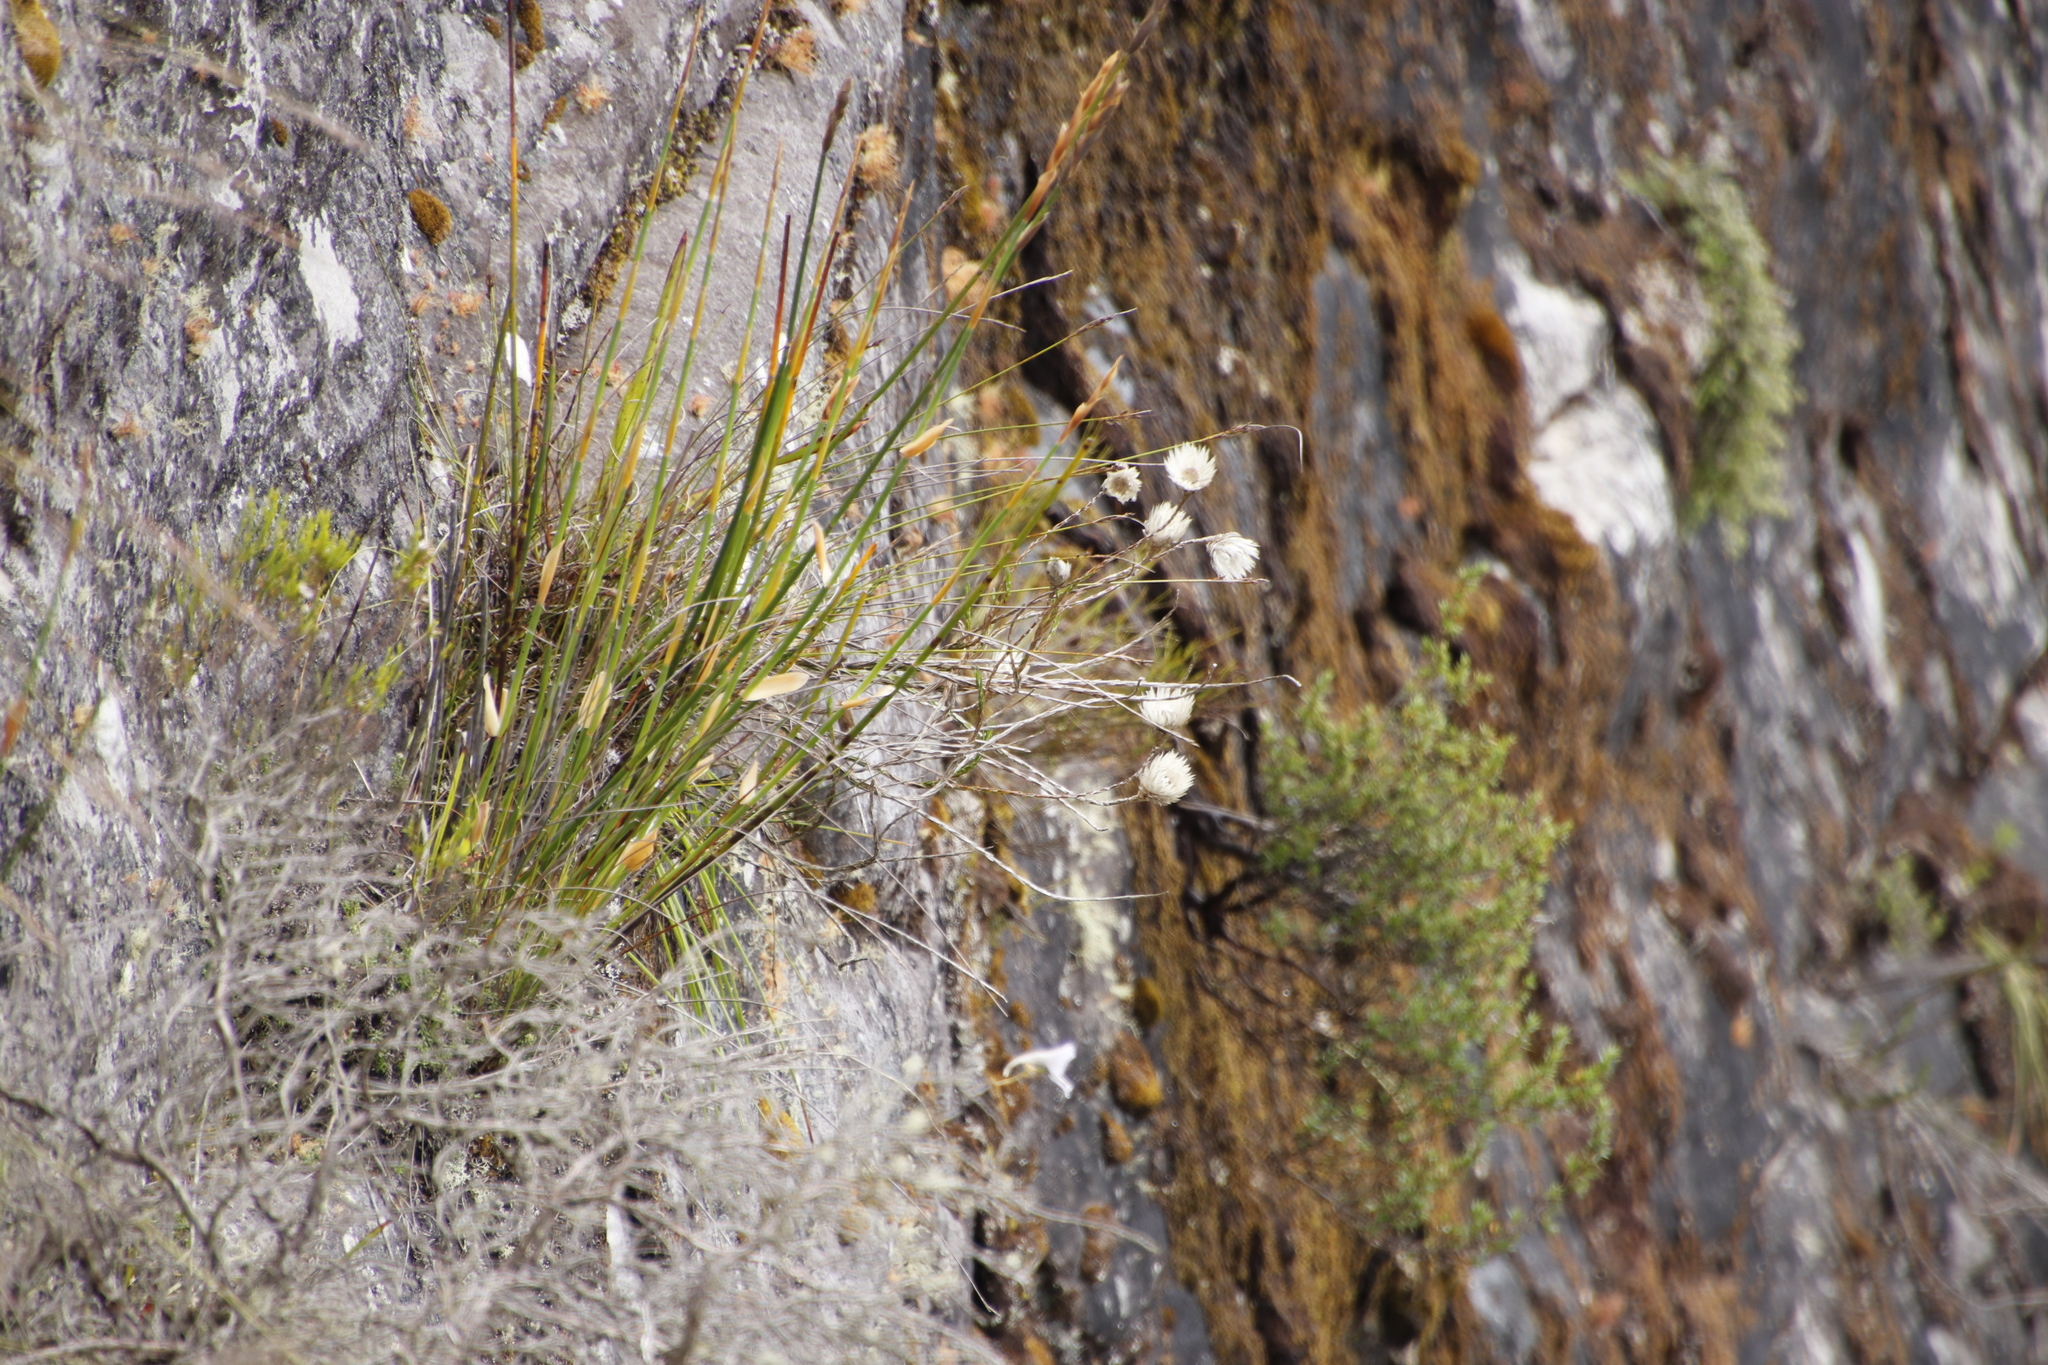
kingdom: Plantae
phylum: Tracheophyta
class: Magnoliopsida
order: Asterales
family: Asteraceae
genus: Edmondia
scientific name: Edmondia sesamoides
